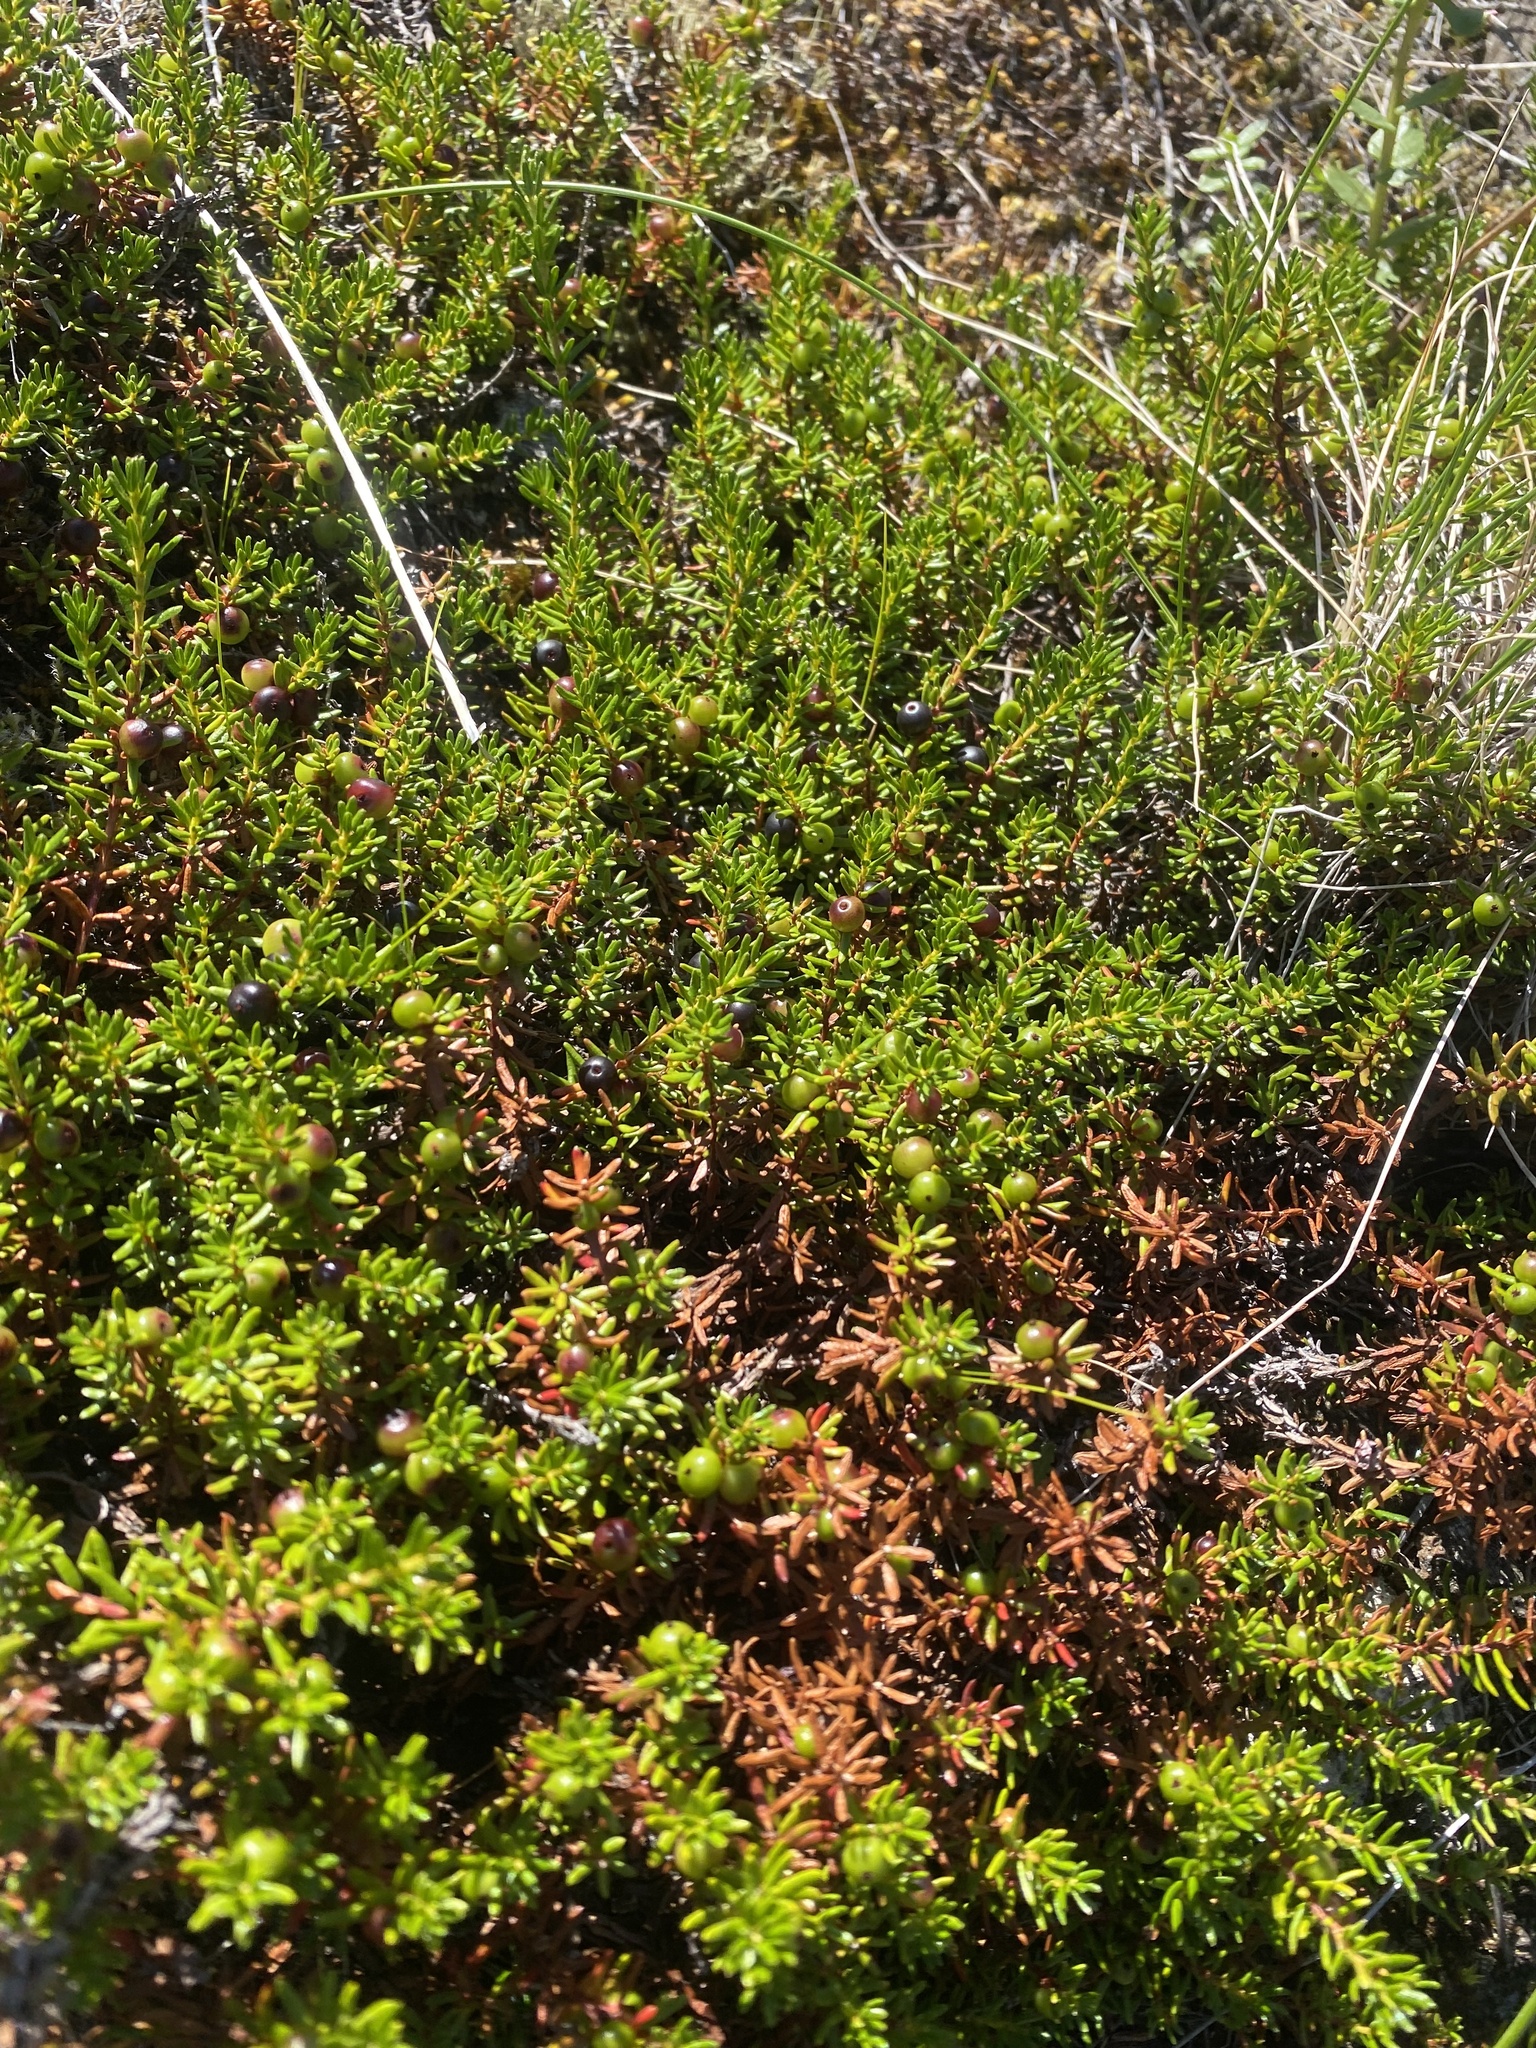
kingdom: Plantae
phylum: Tracheophyta
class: Magnoliopsida
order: Ericales
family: Ericaceae
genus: Empetrum
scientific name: Empetrum nigrum
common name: Black crowberry
